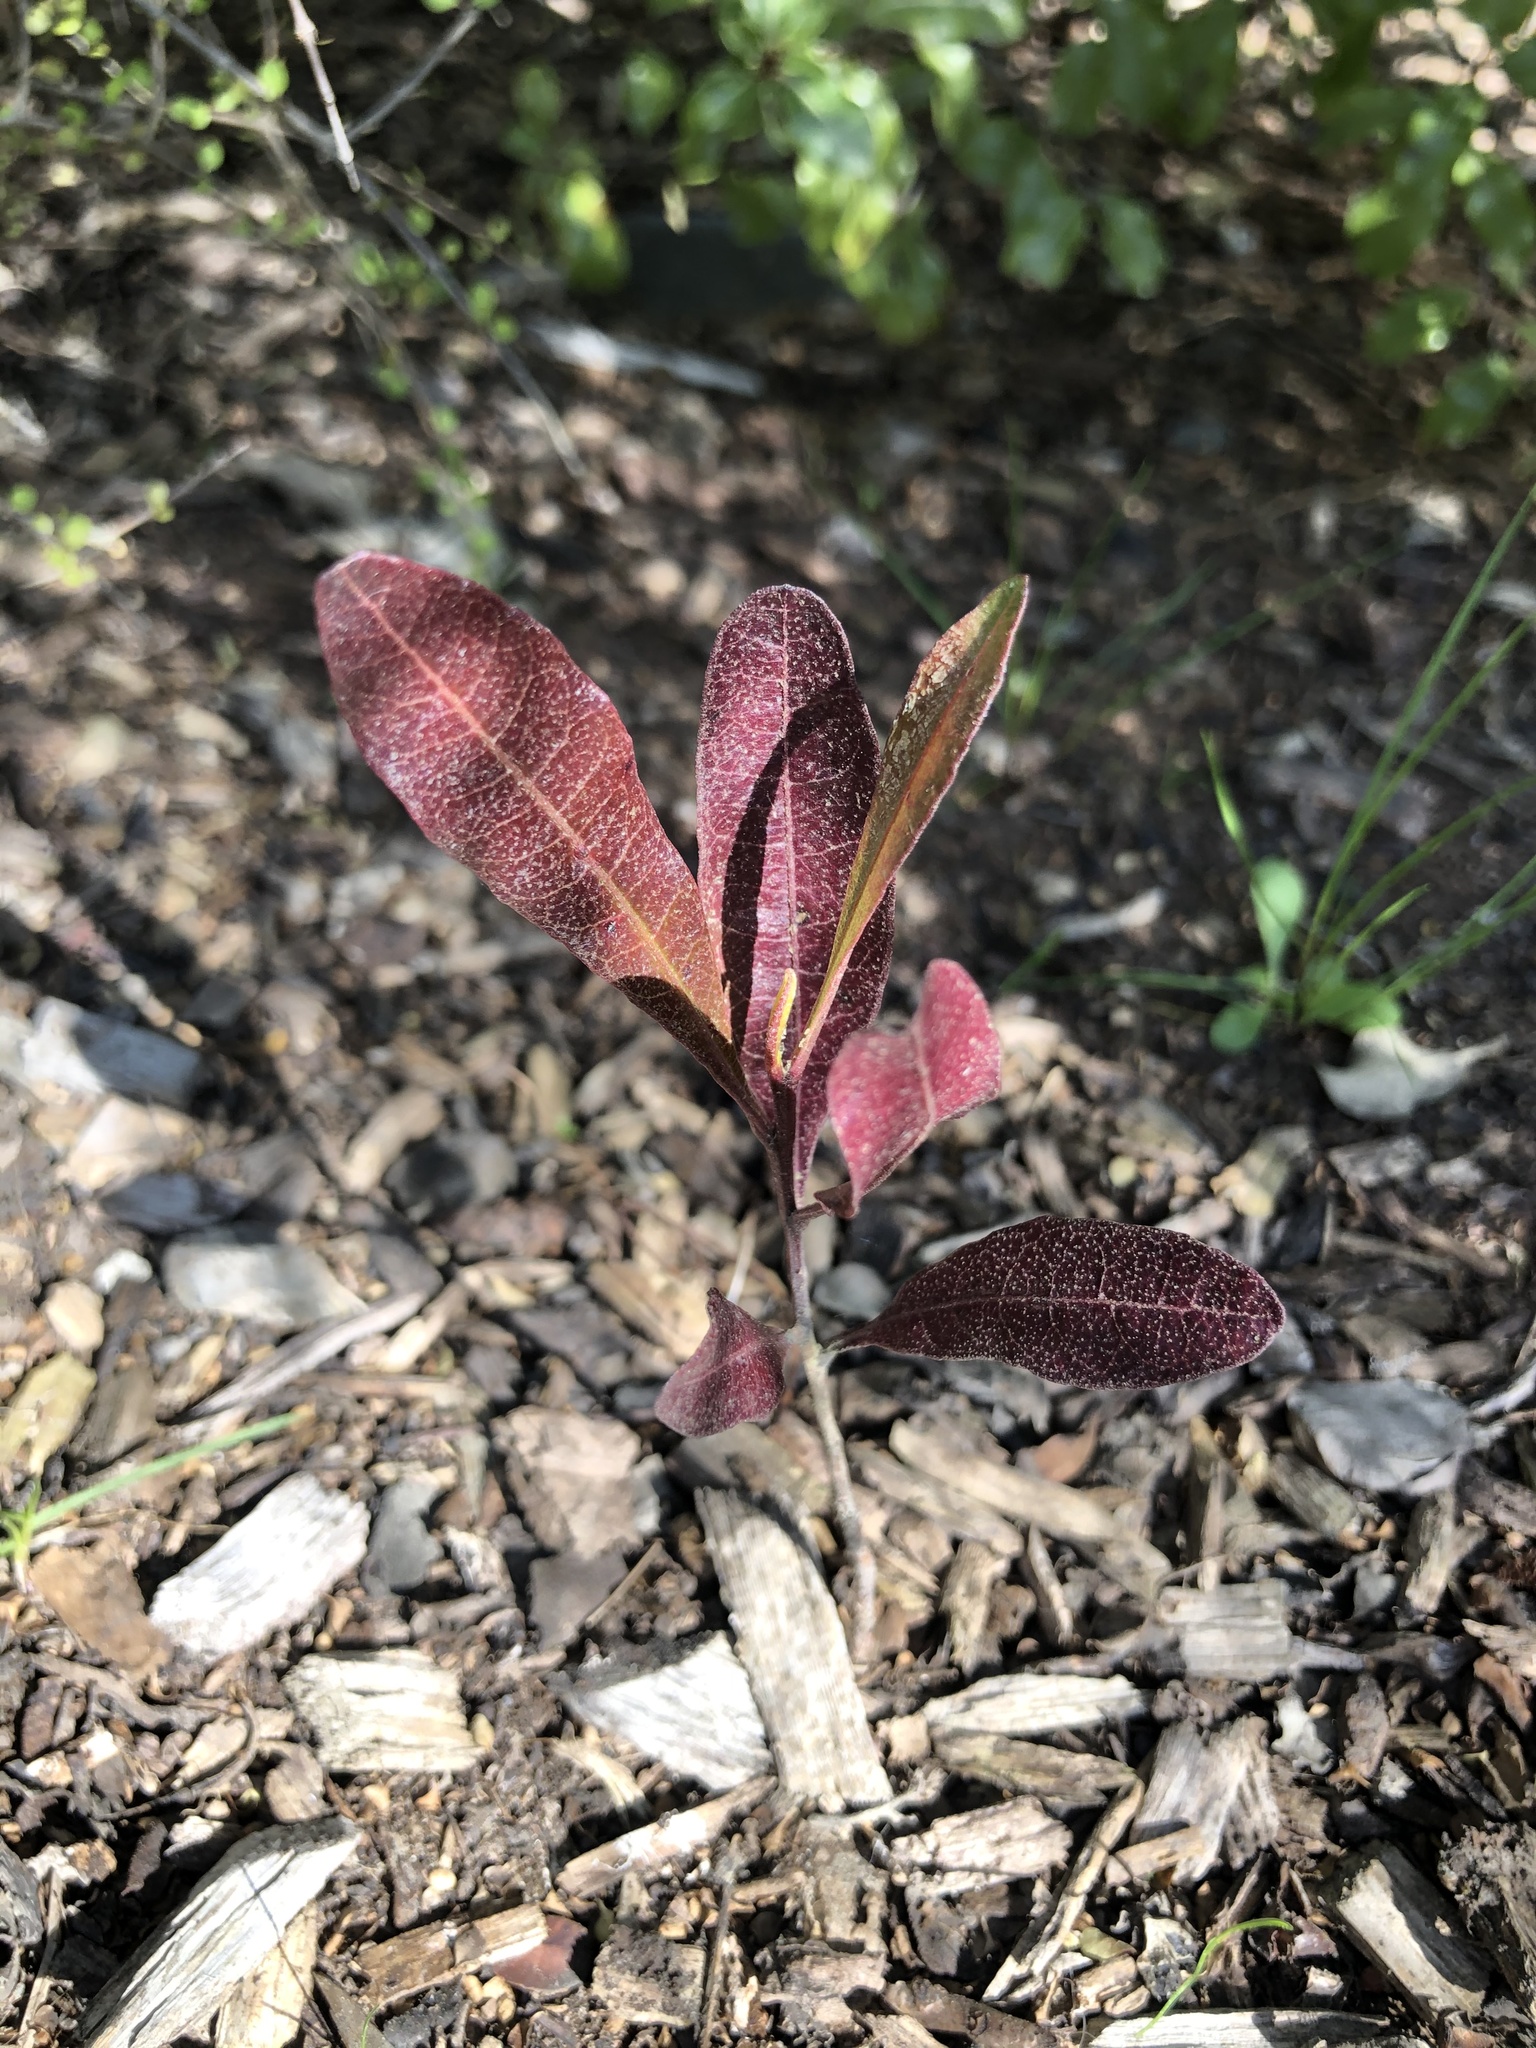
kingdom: Plantae
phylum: Tracheophyta
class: Magnoliopsida
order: Sapindales
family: Sapindaceae
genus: Dodonaea
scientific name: Dodonaea viscosa
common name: Hopbush
